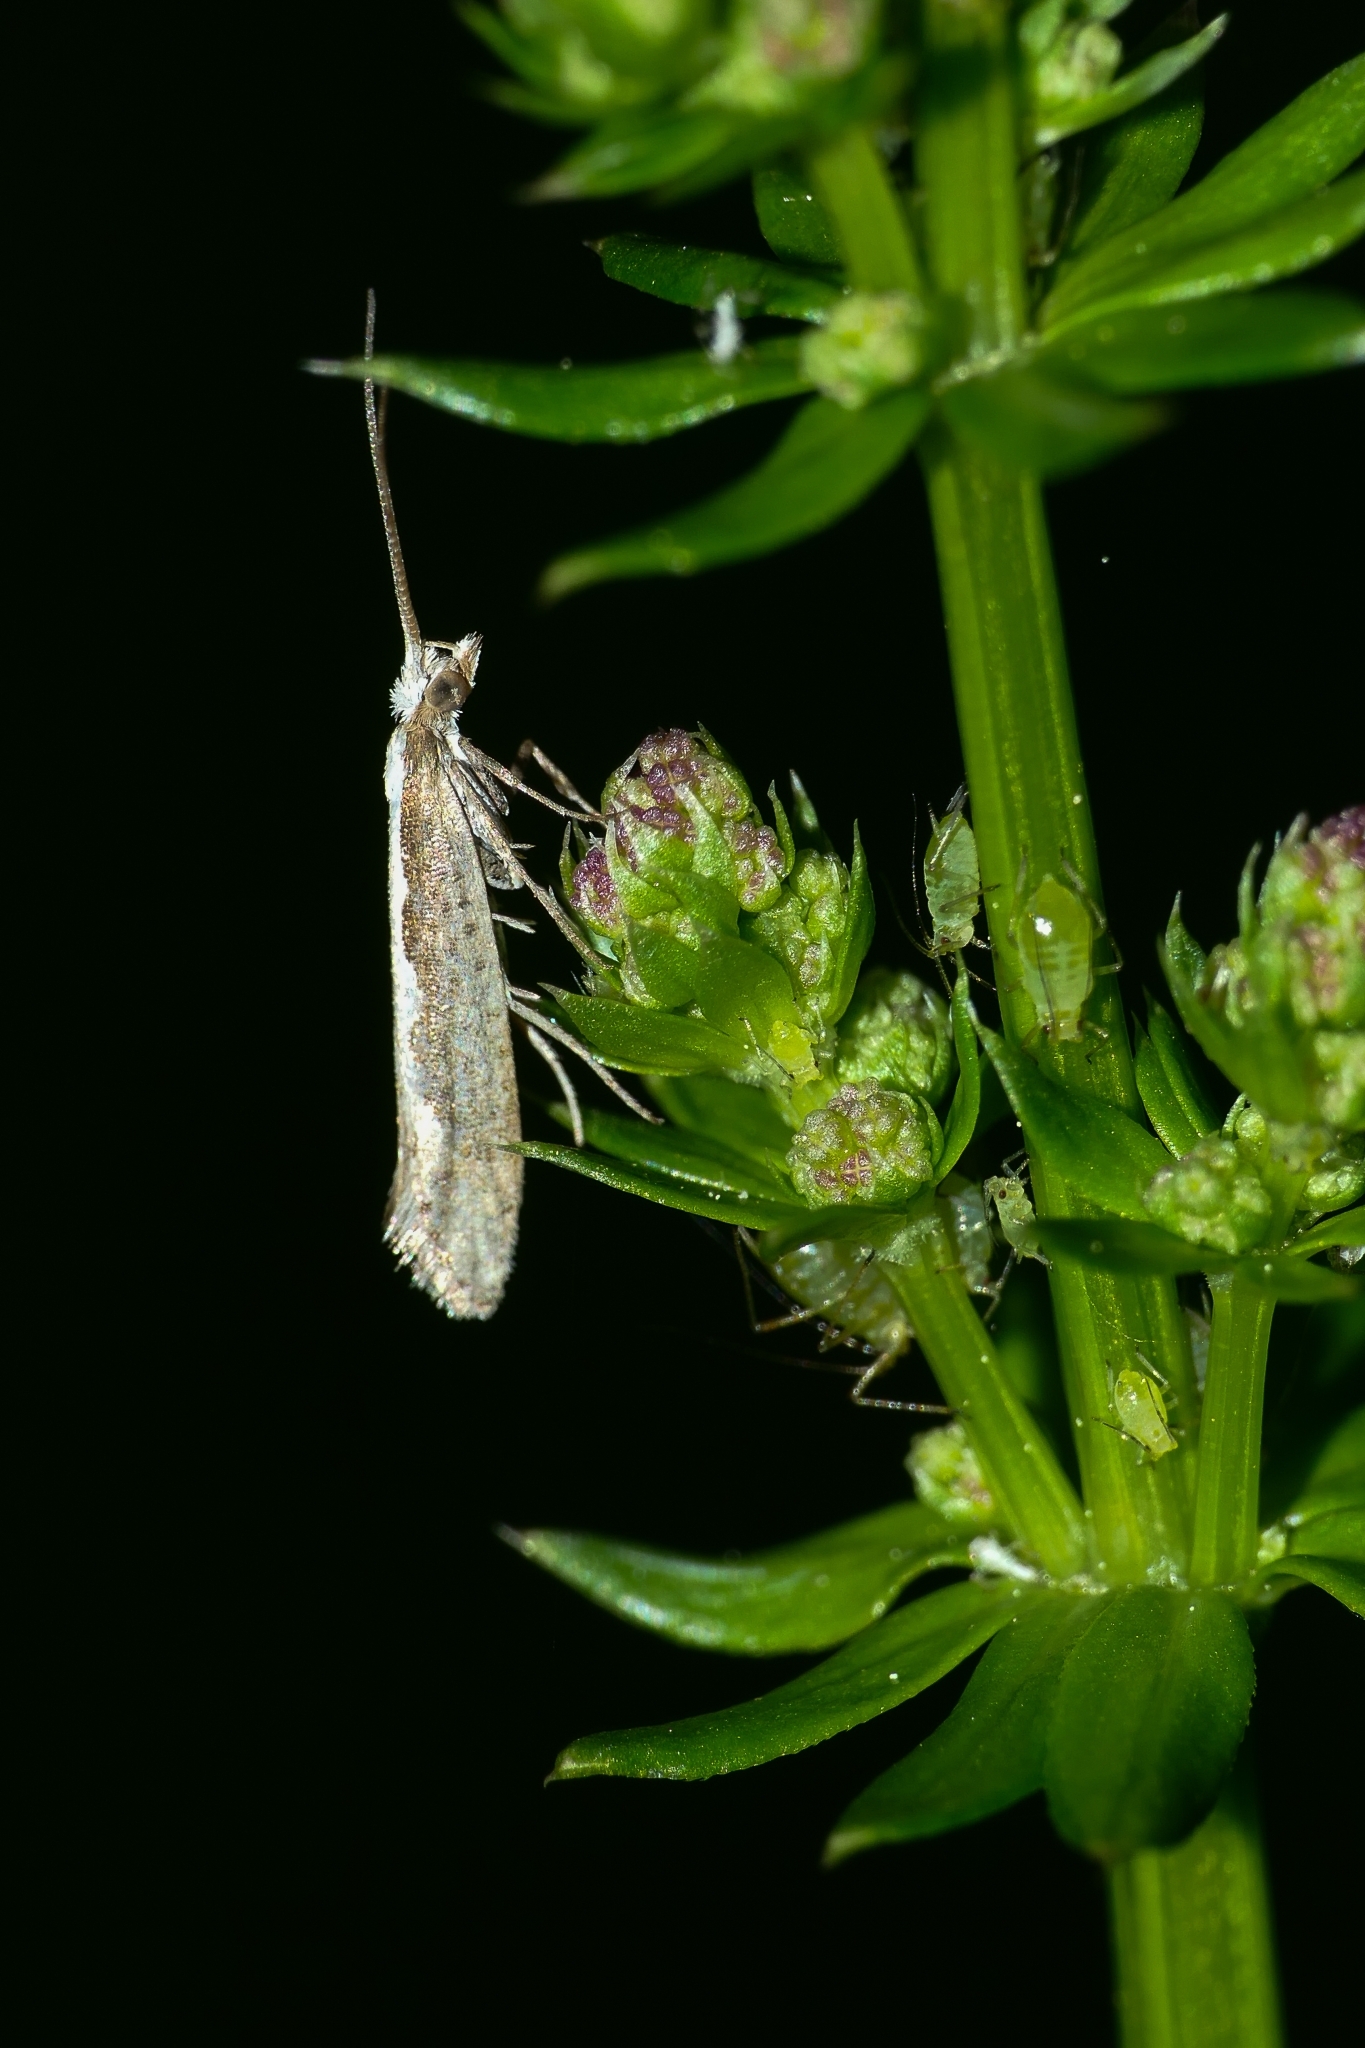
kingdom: Animalia
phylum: Arthropoda
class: Insecta
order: Lepidoptera
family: Plutellidae
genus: Plutella
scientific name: Plutella xylostella
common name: Diamond-back moth
